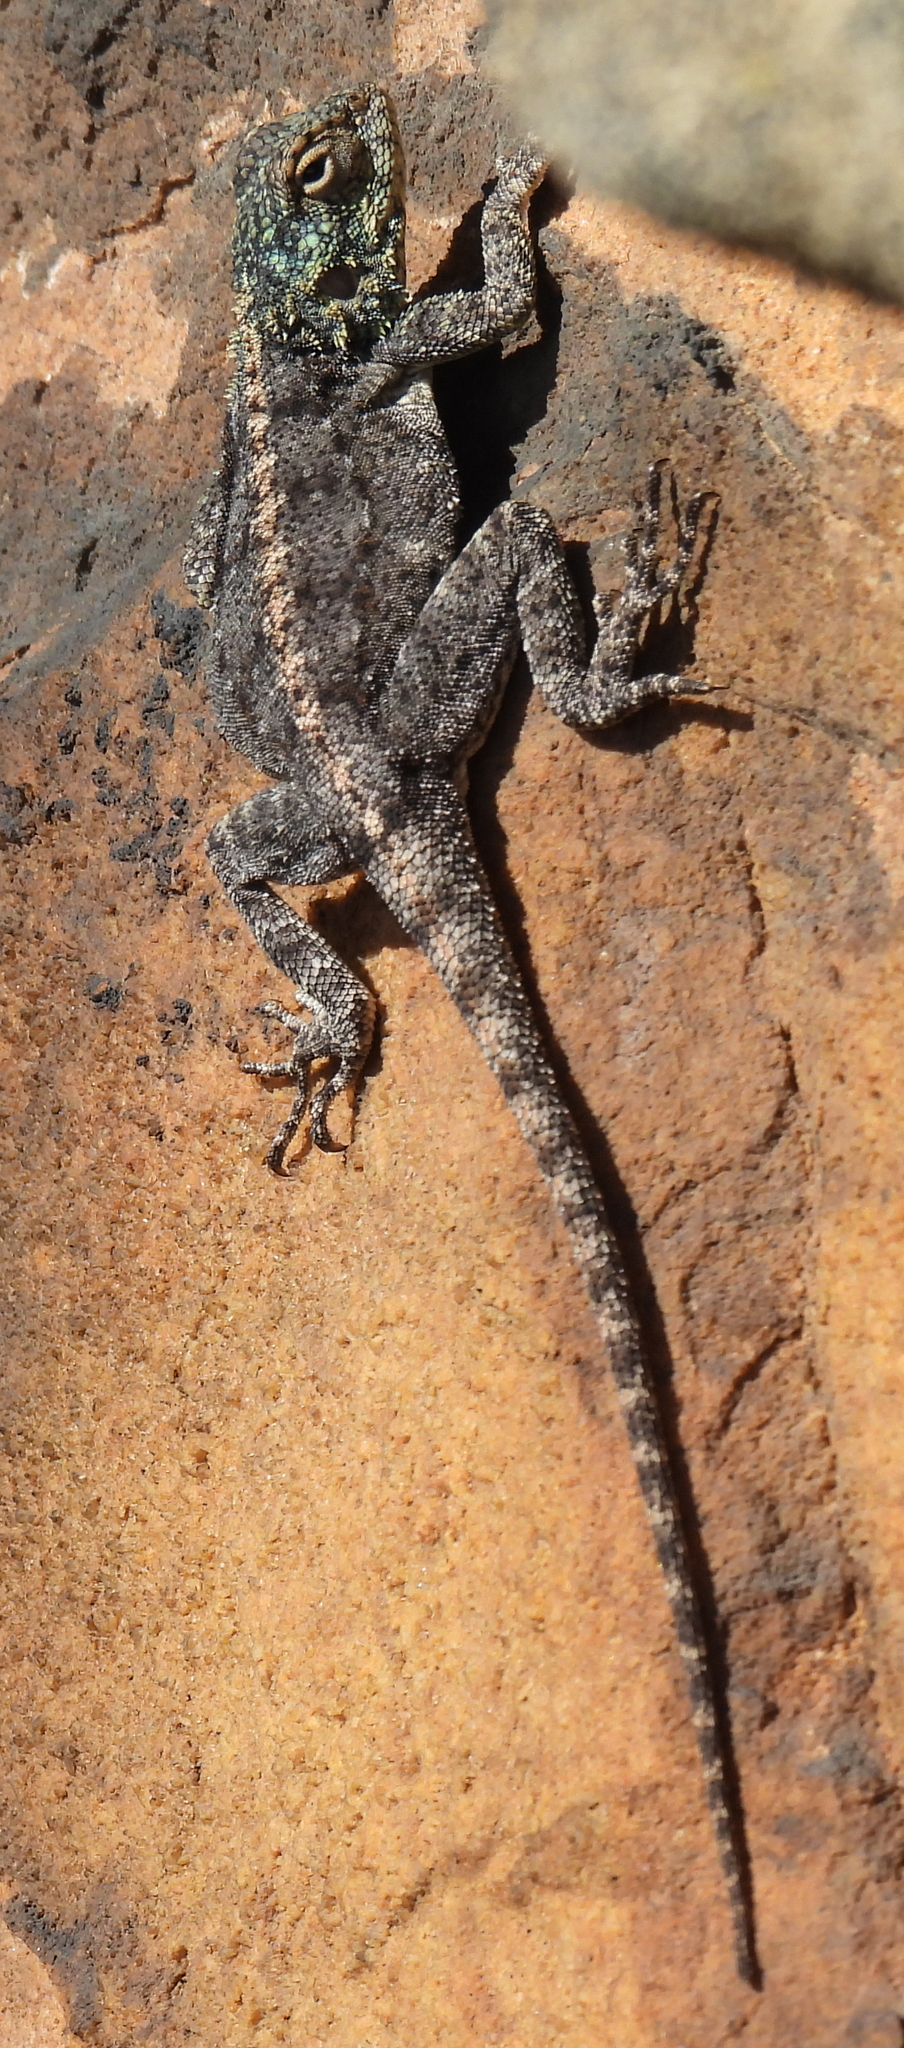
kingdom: Animalia
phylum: Chordata
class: Squamata
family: Agamidae
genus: Agama
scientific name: Agama atra
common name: Southern african rock agama
